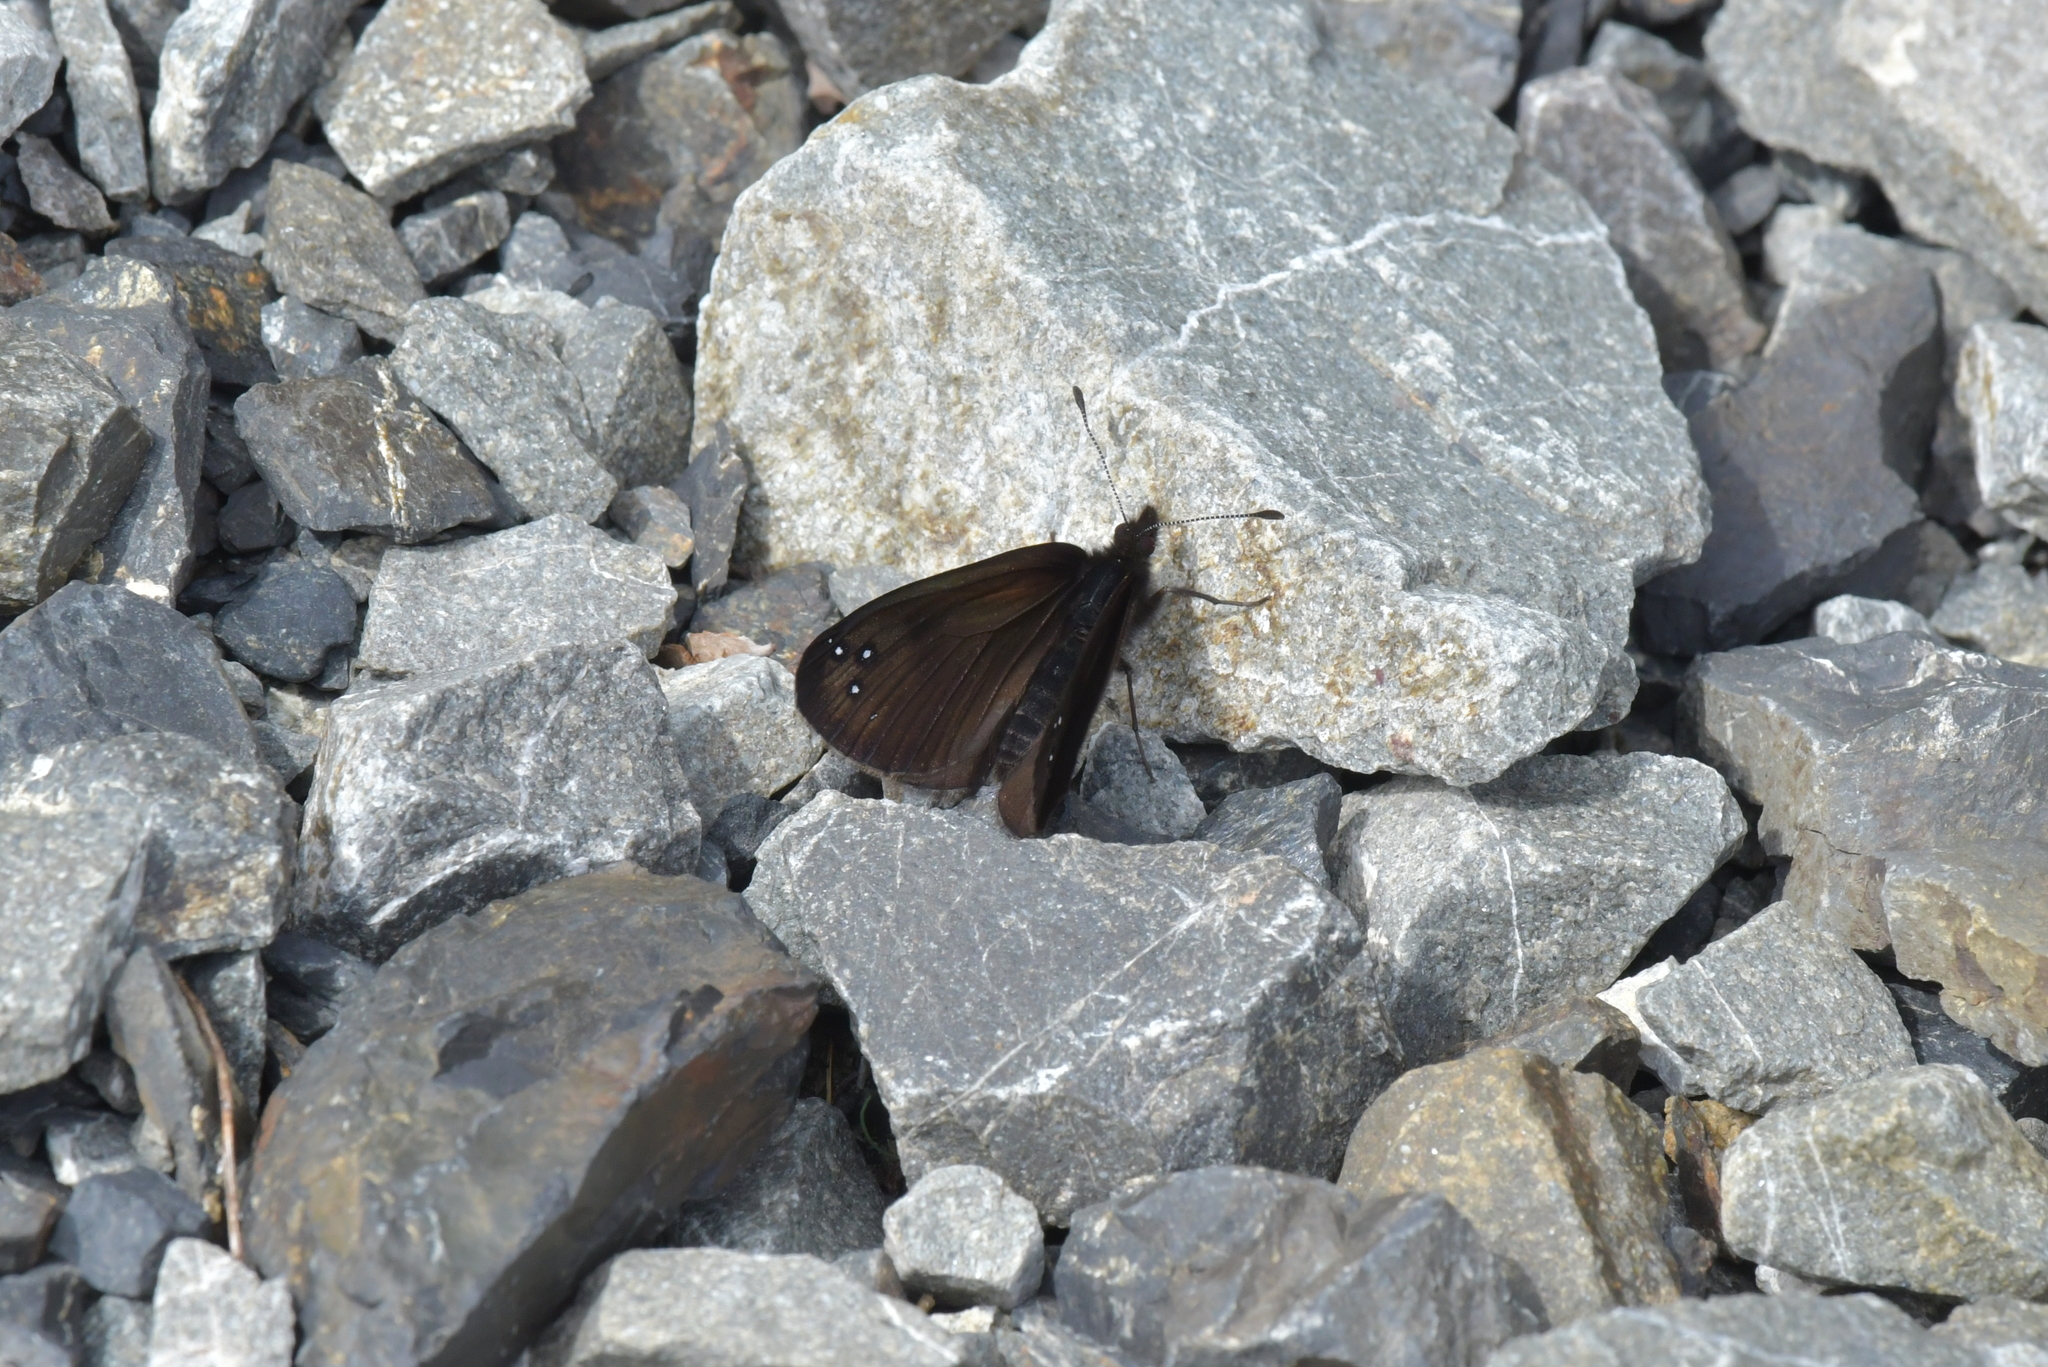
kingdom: Animalia
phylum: Arthropoda
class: Insecta
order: Lepidoptera
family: Nymphalidae
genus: Erebia
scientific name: Erebia Percnodaimon merula
